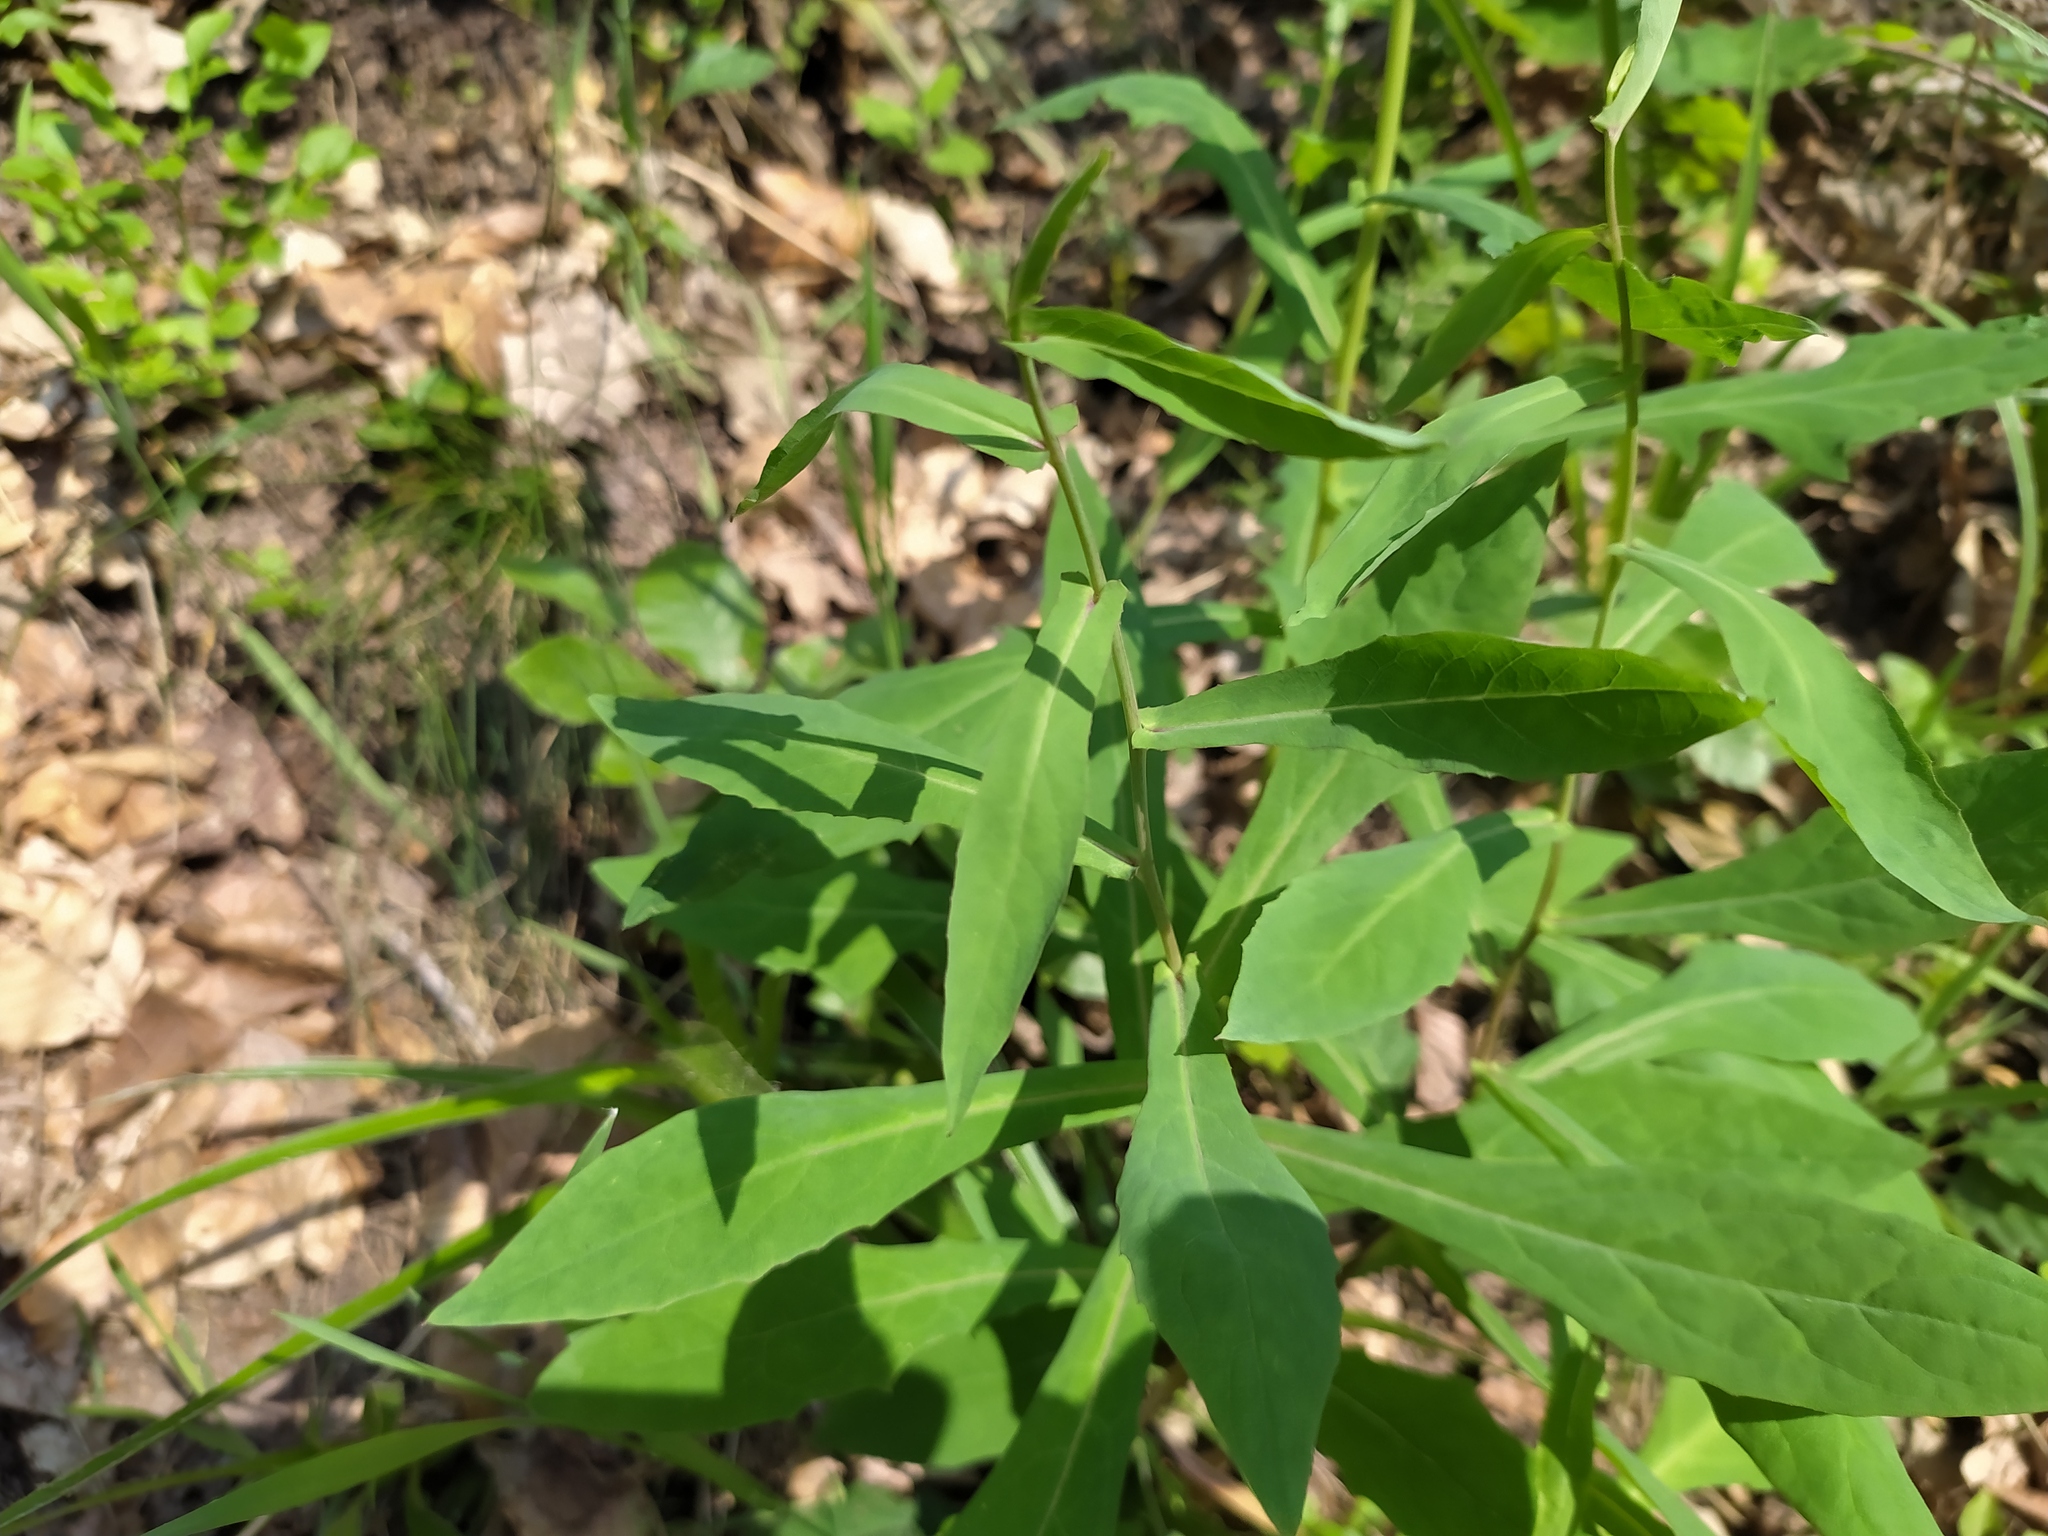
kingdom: Plantae
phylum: Tracheophyta
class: Magnoliopsida
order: Asterales
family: Asteraceae
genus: Prenanthes
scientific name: Prenanthes purpurea
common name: Purple lettuce
